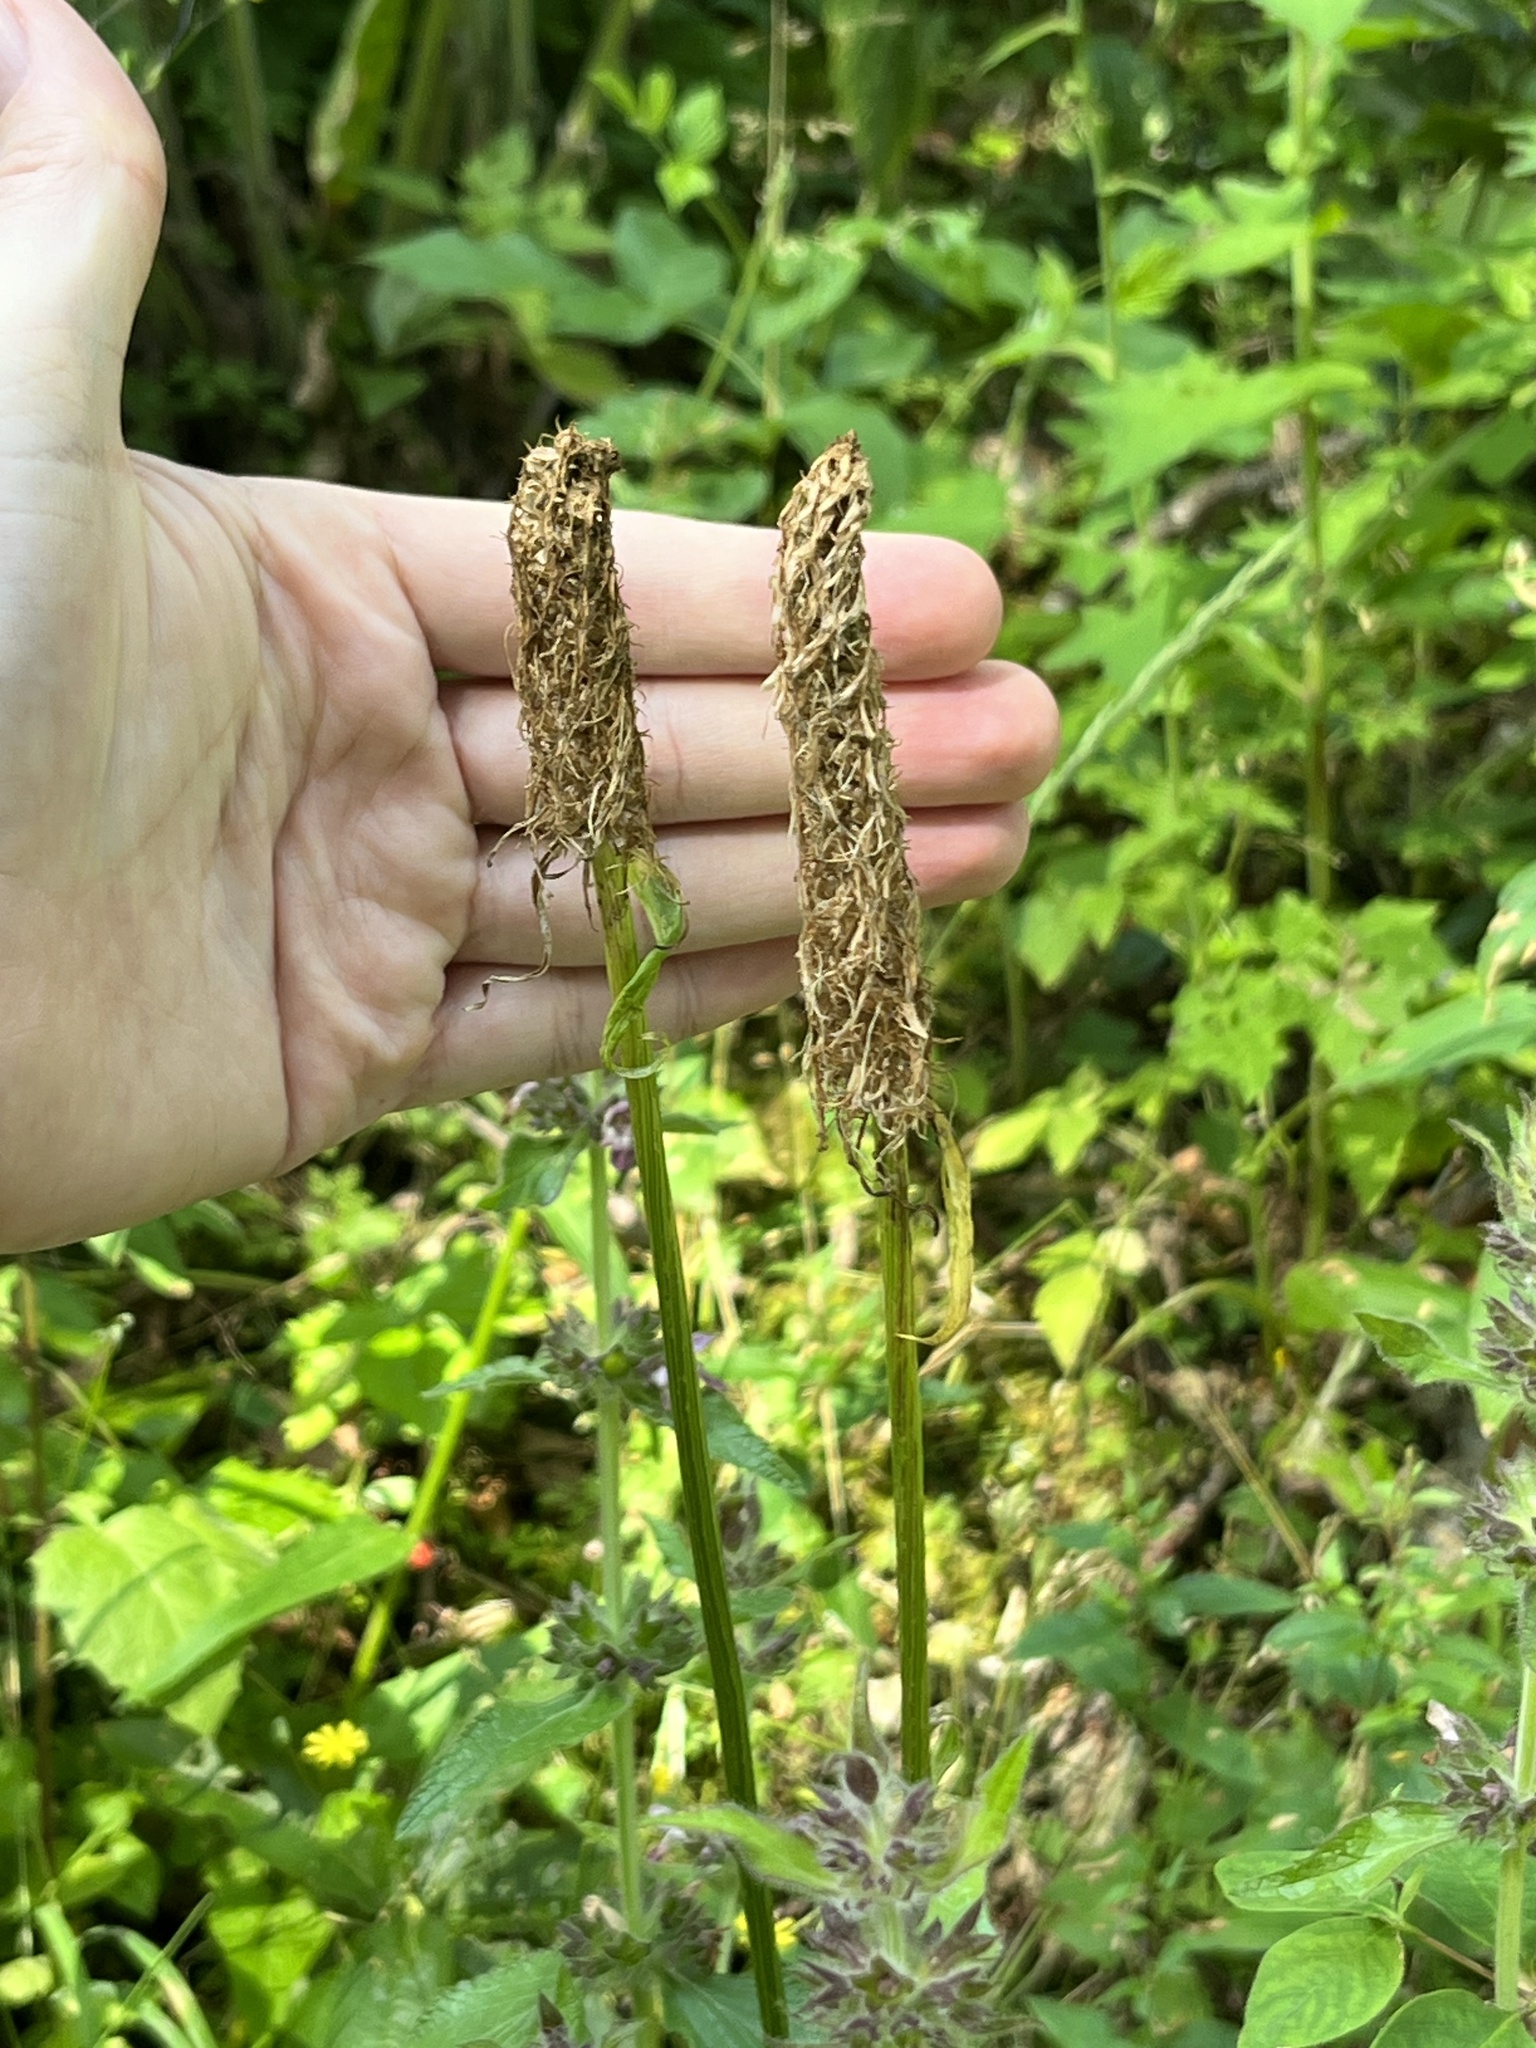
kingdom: Plantae
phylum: Tracheophyta
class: Magnoliopsida
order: Asterales
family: Campanulaceae
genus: Phyteuma
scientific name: Phyteuma spicatum
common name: Spiked rampion
